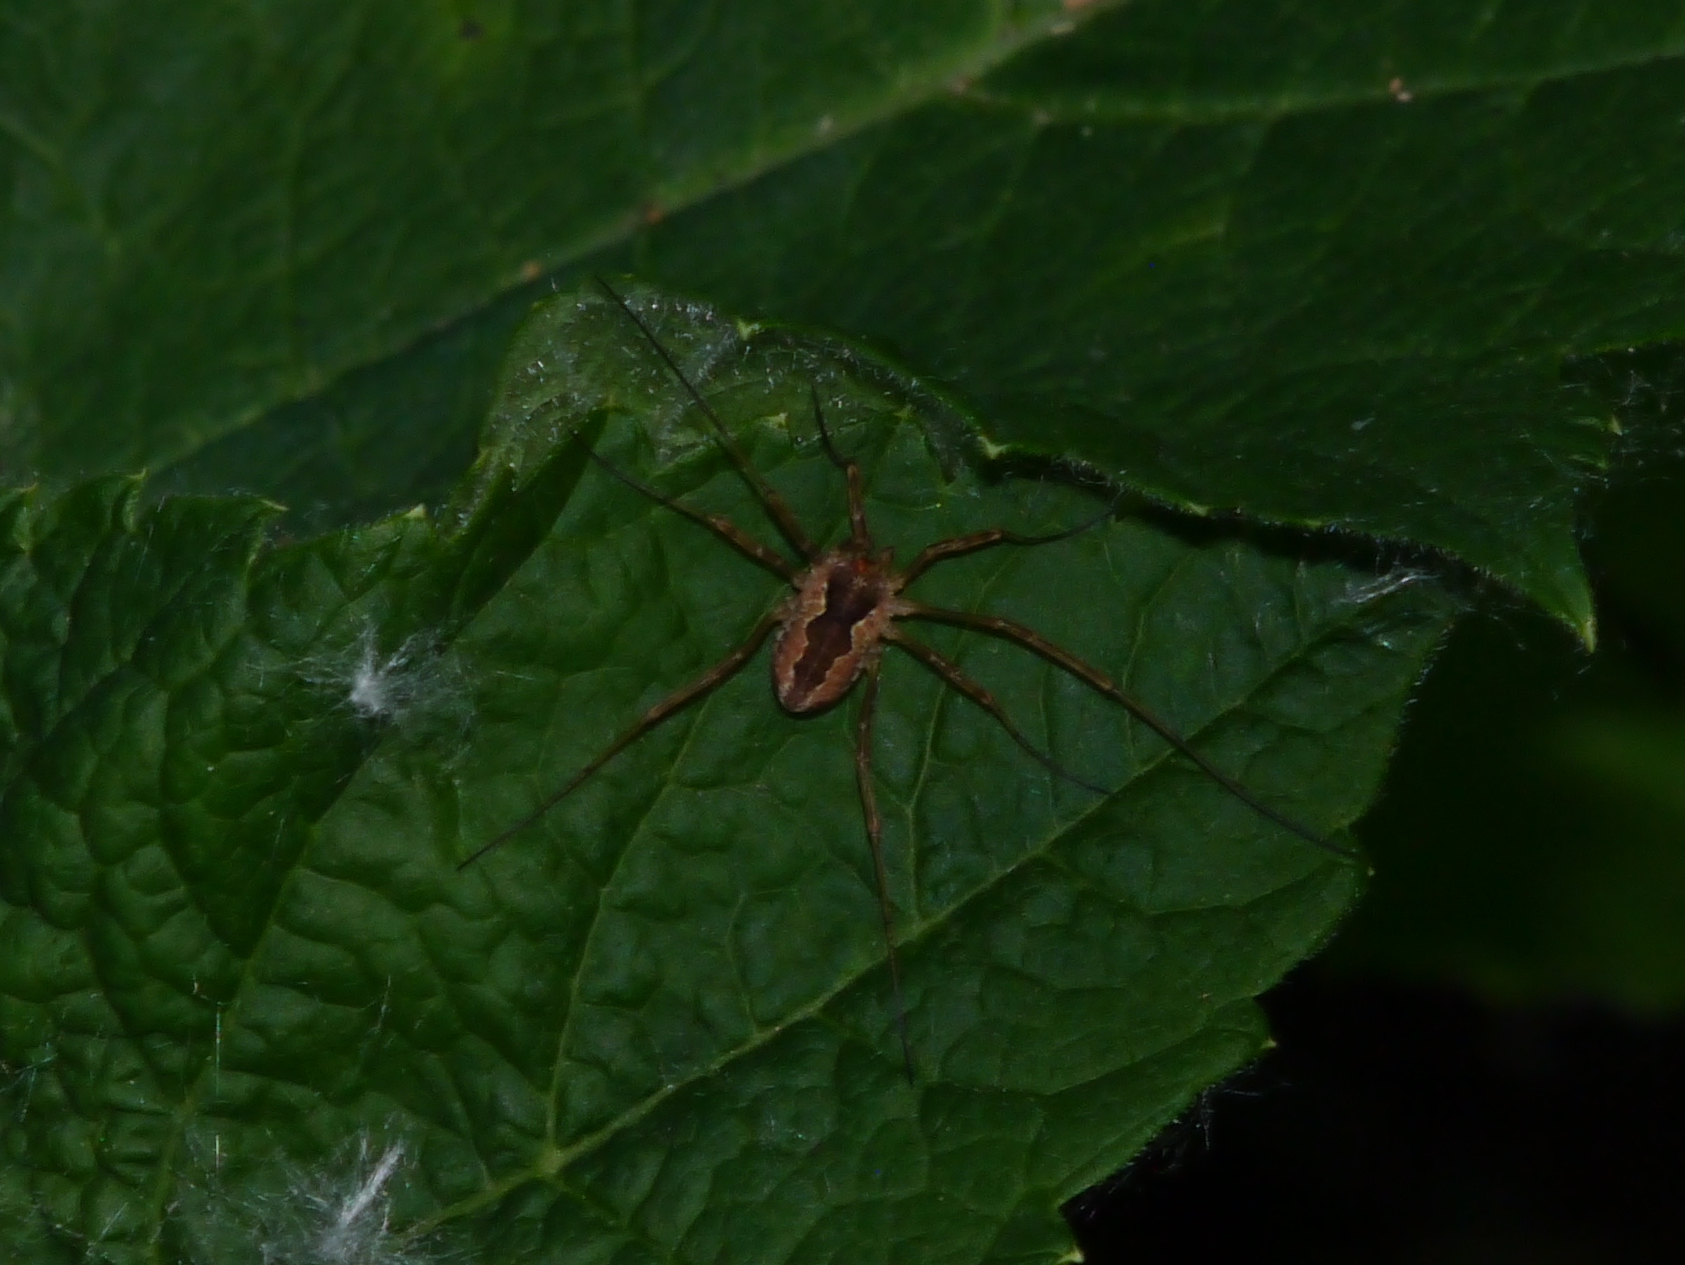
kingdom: Animalia
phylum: Arthropoda
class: Arachnida
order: Opiliones
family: Phalangiidae
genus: Mitopus
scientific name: Mitopus morio
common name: Saddleback harvestman
